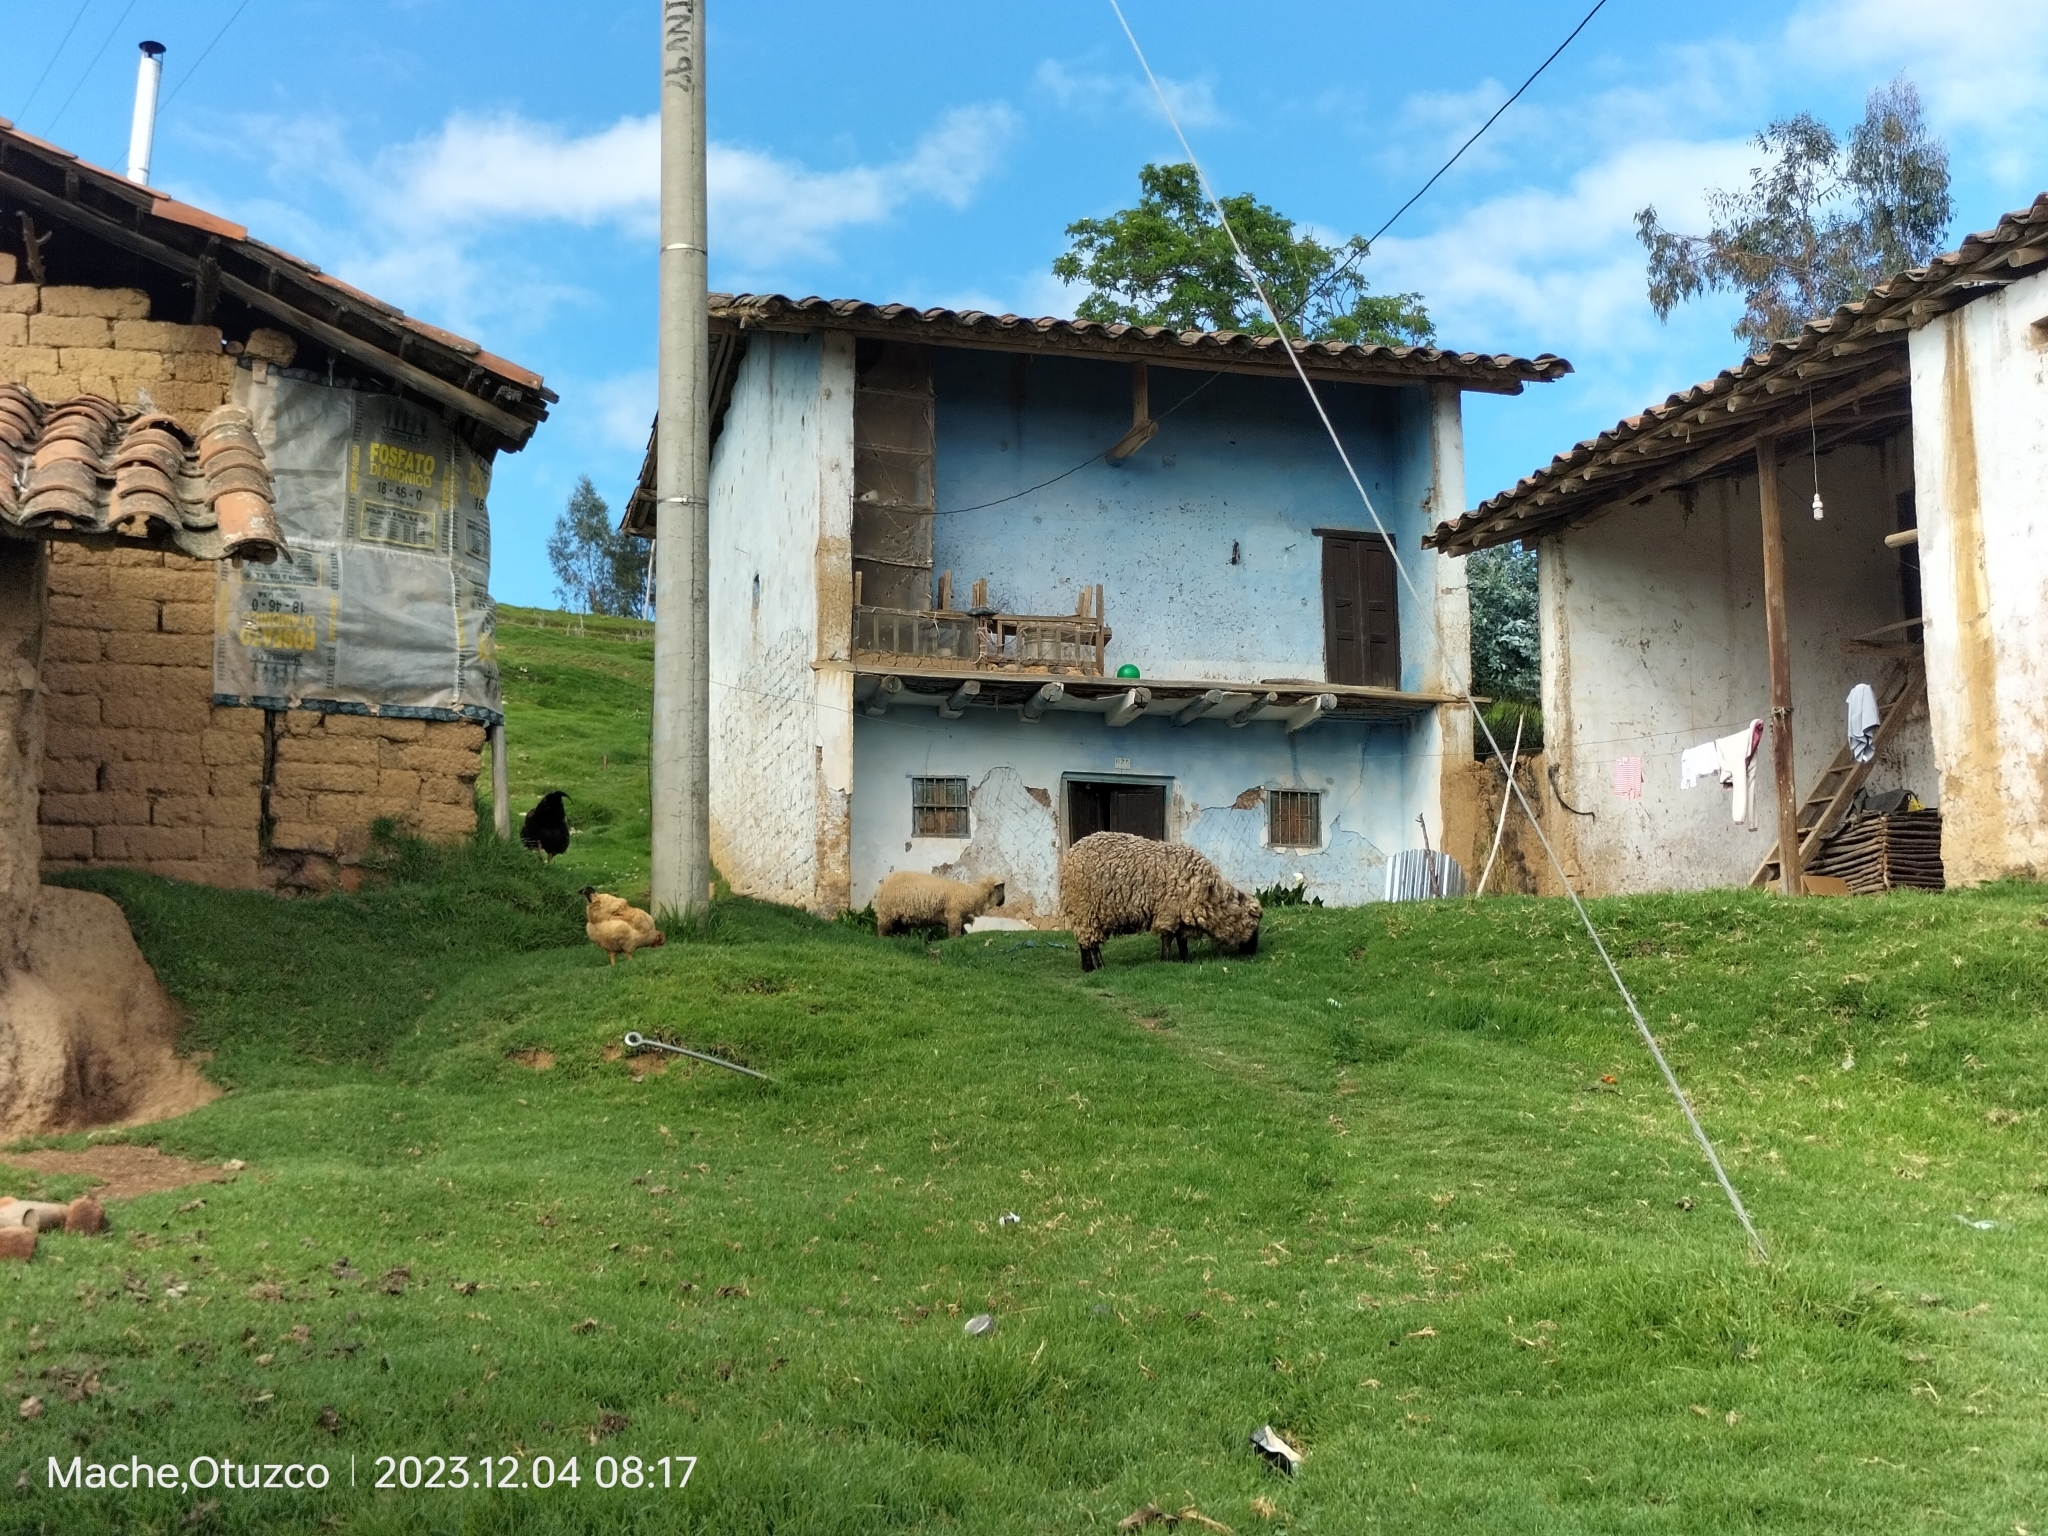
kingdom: Animalia
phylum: Chordata
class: Mammalia
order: Artiodactyla
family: Bovidae
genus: Ovis
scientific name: Ovis aries
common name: Domestic sheep
